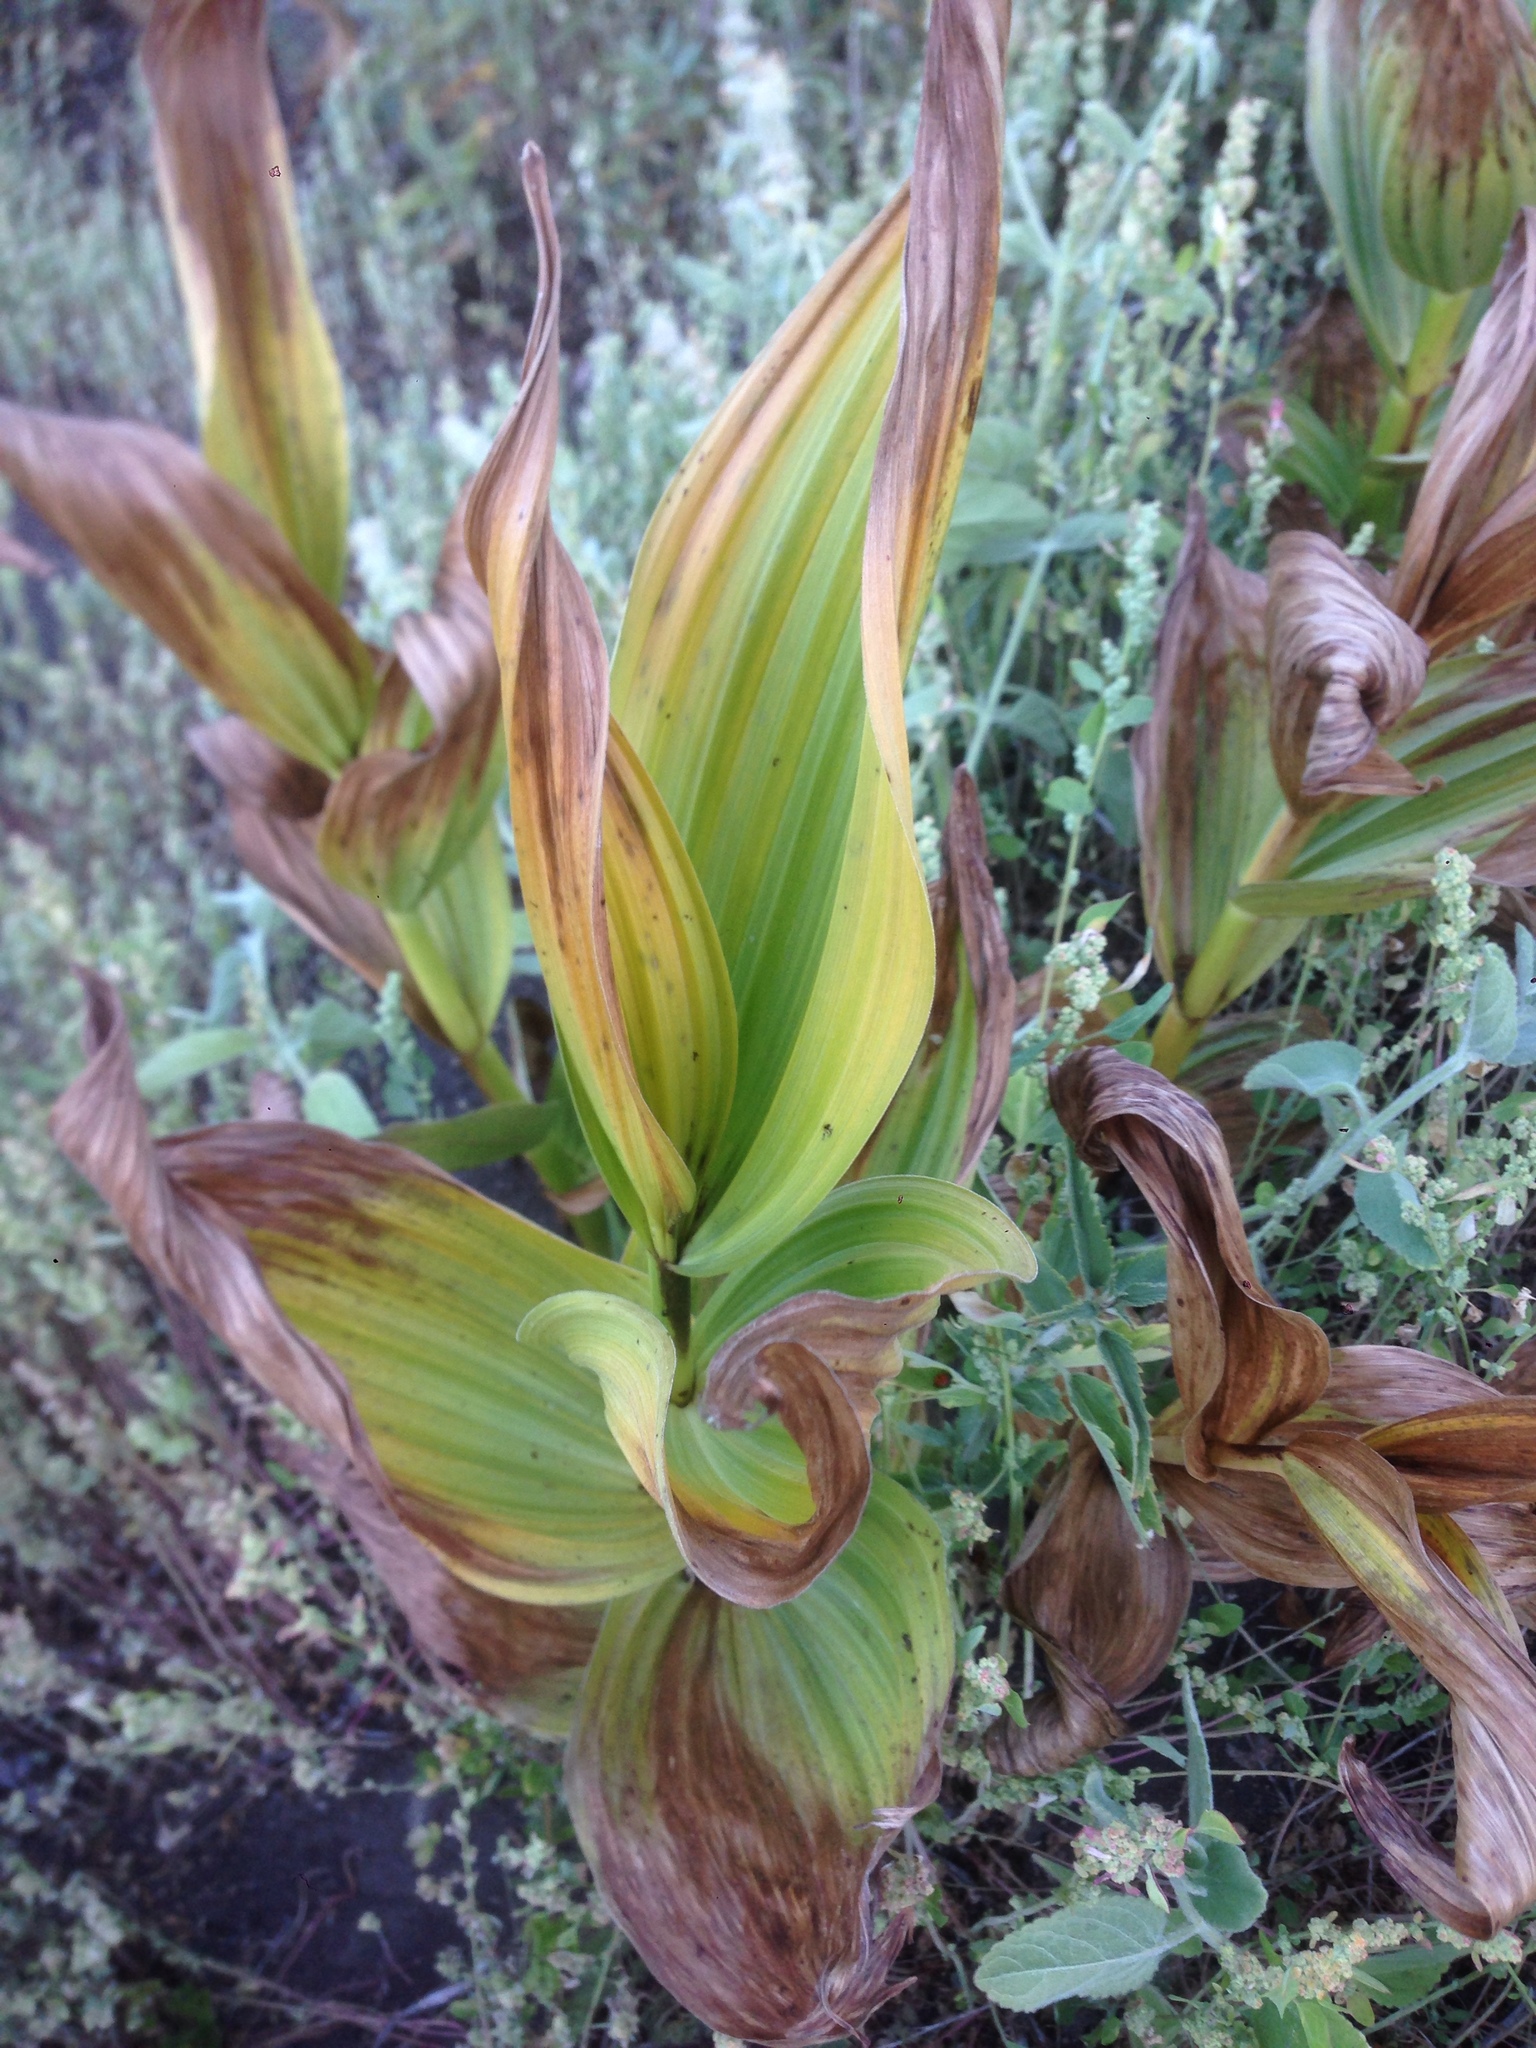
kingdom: Plantae
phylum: Tracheophyta
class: Liliopsida
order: Liliales
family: Melanthiaceae
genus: Veratrum
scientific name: Veratrum californicum
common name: California veratrum
